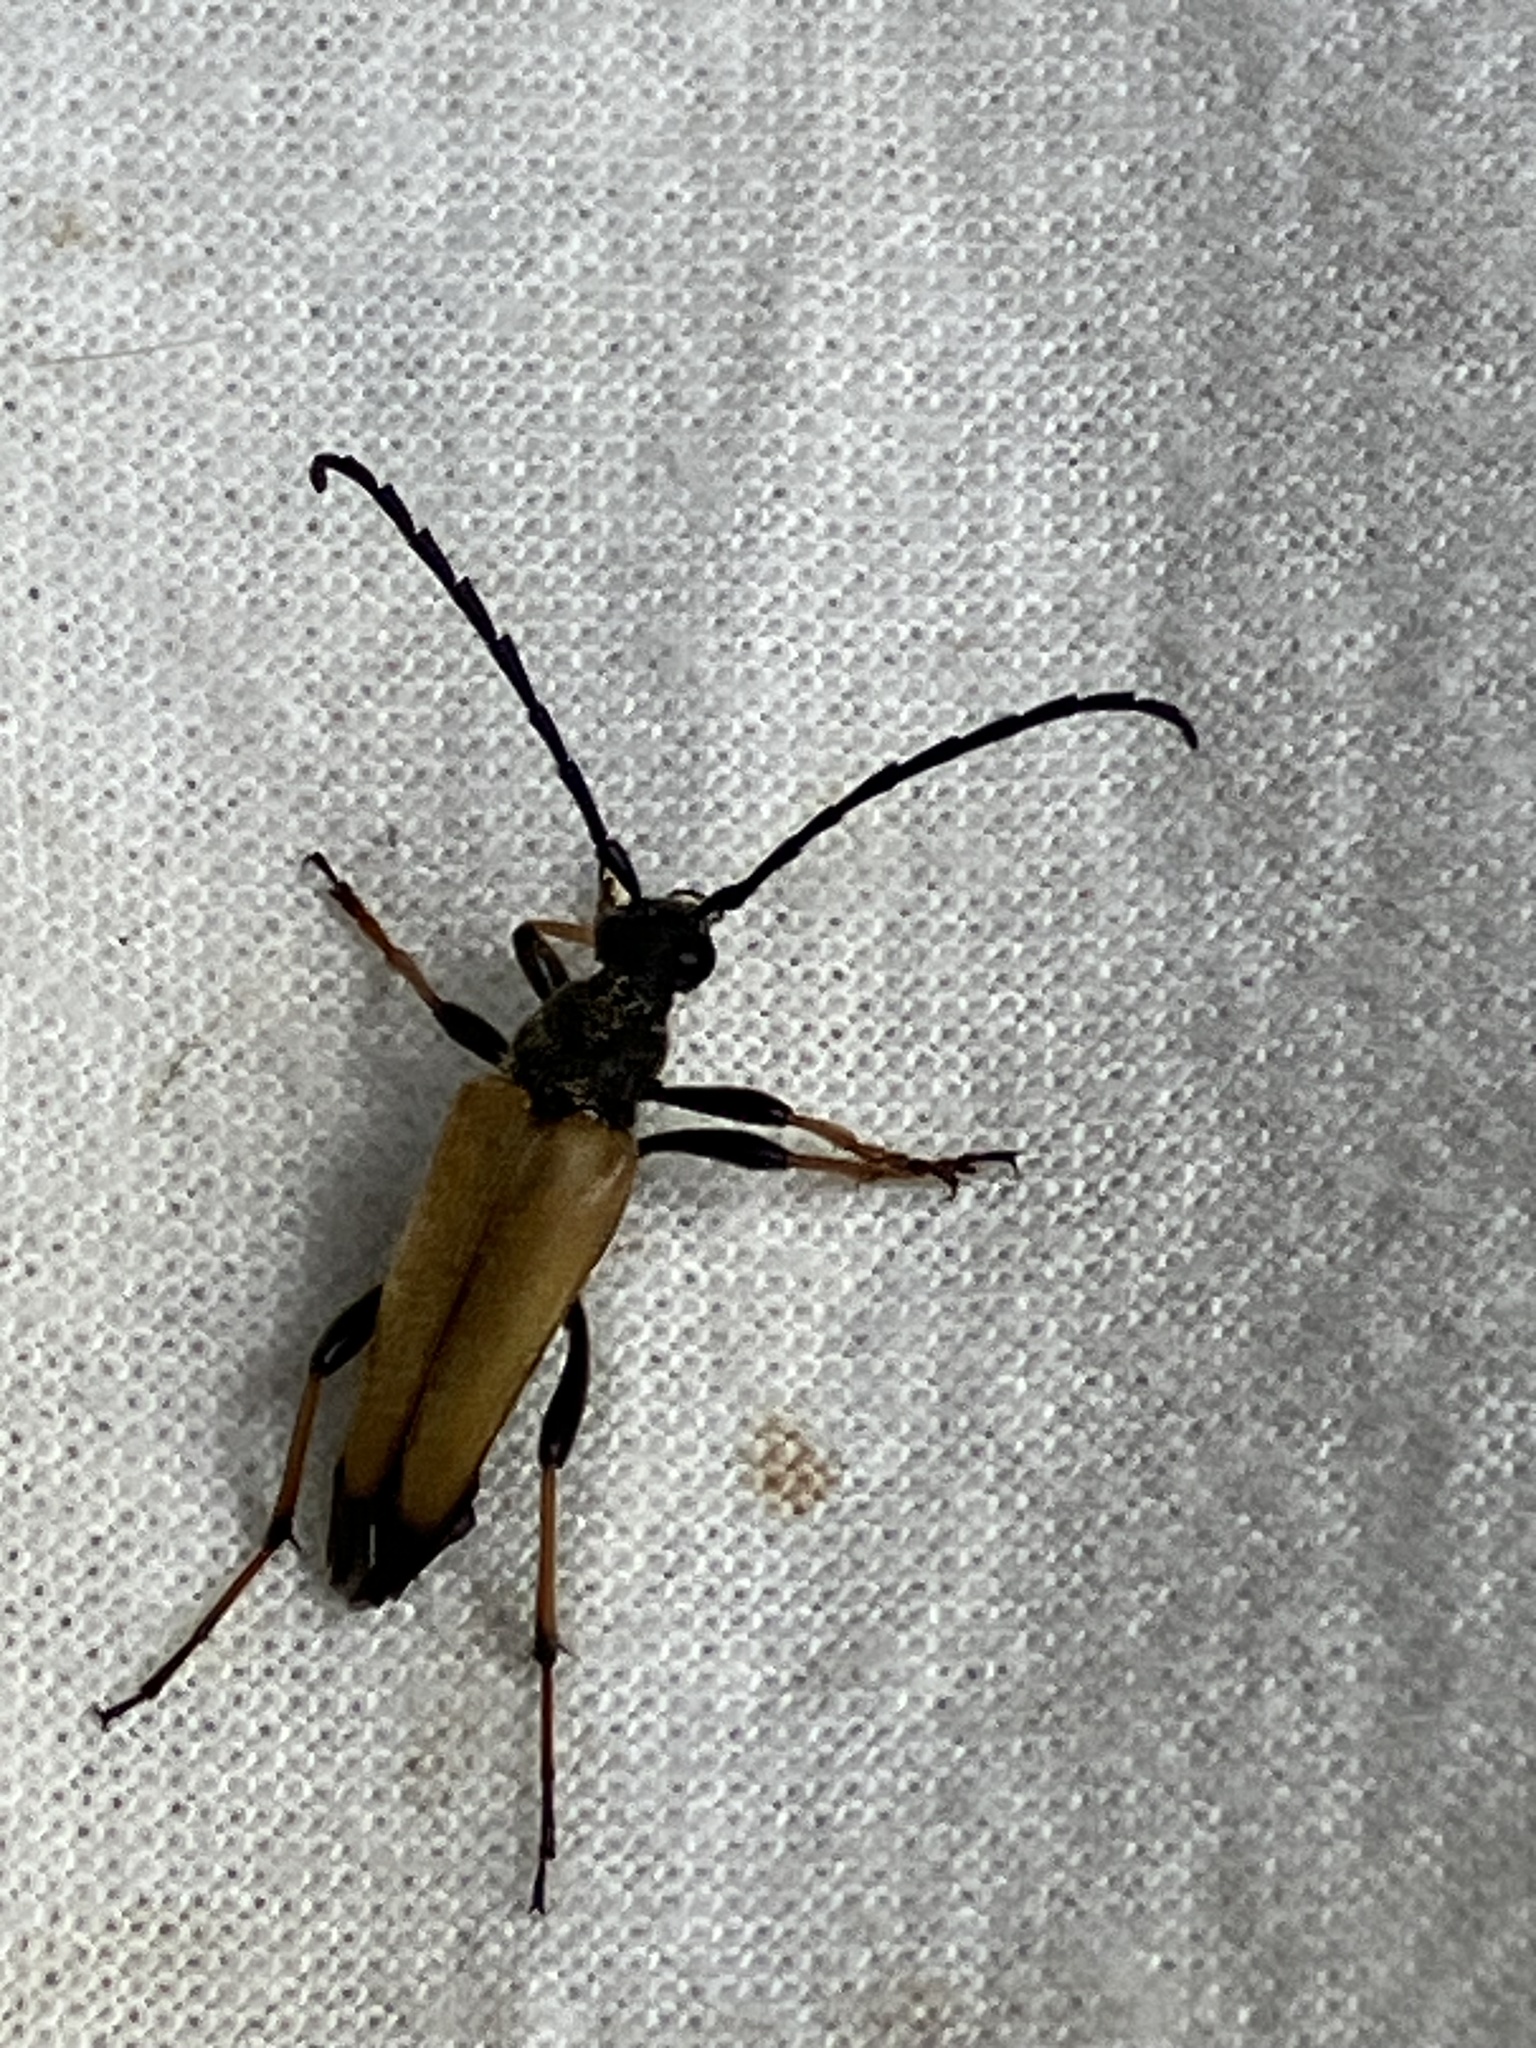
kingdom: Animalia
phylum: Arthropoda
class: Insecta
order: Coleoptera
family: Cerambycidae
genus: Stictoleptura
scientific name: Stictoleptura rubra
